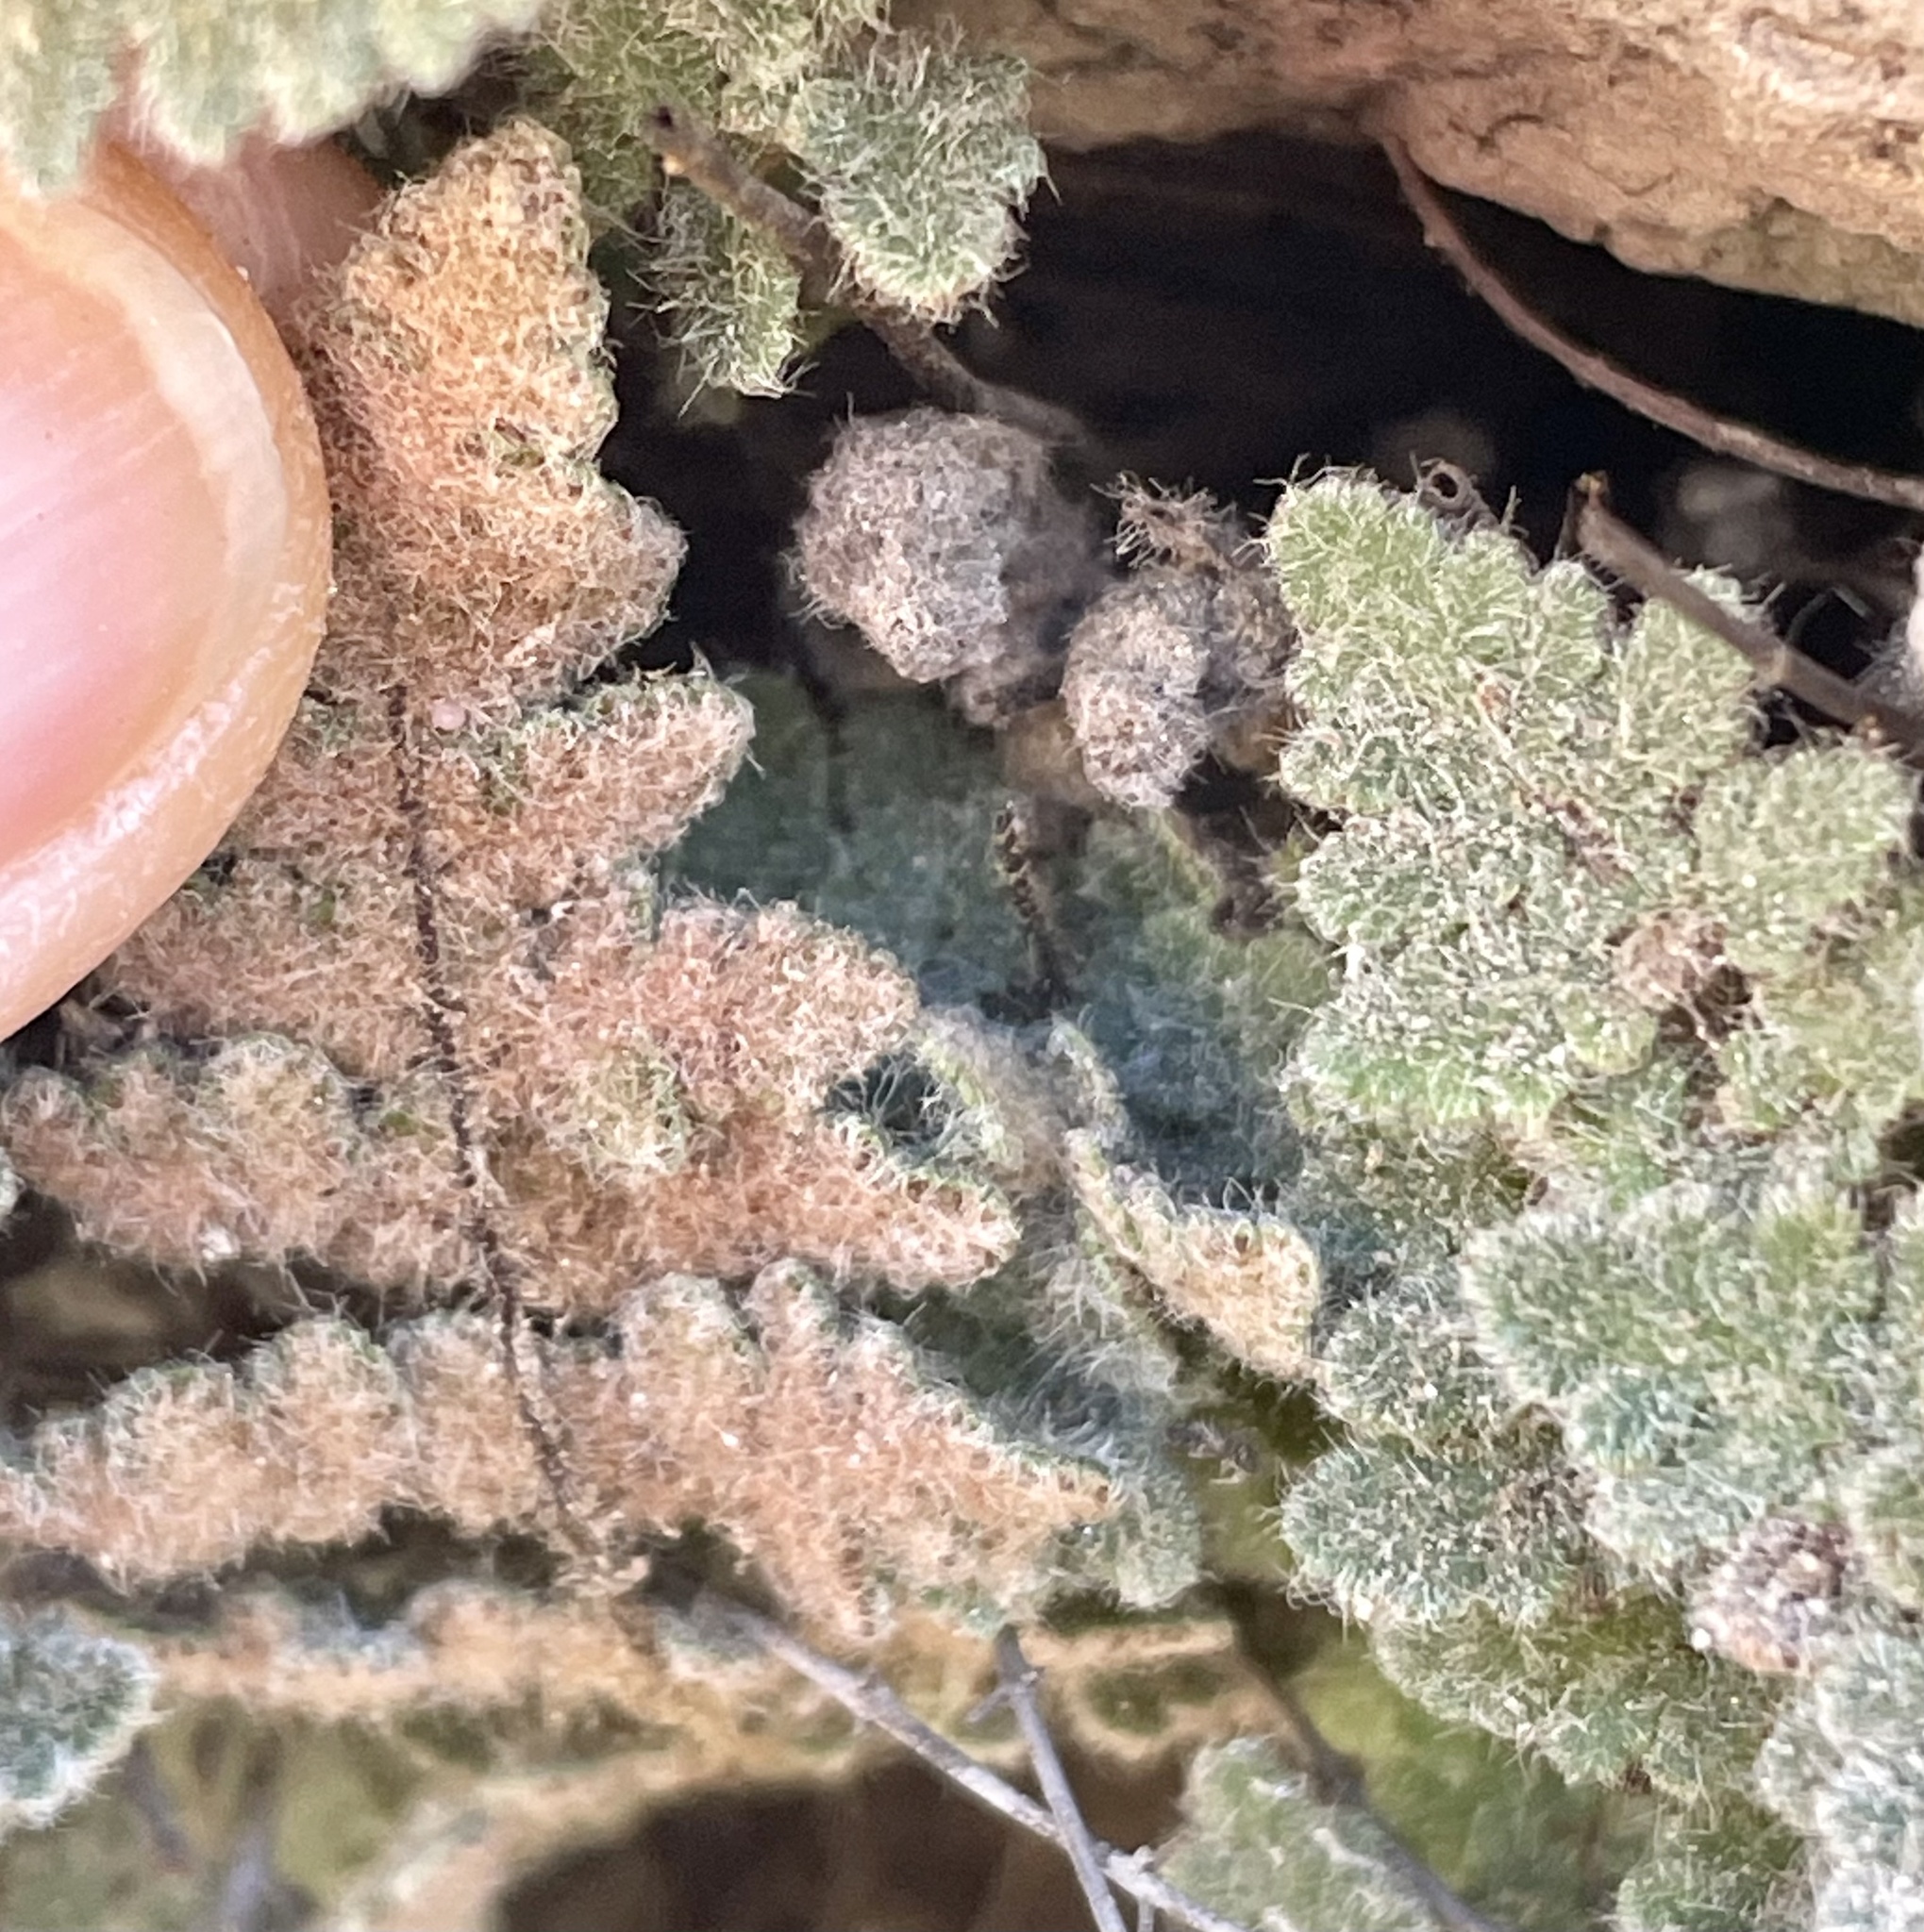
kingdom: Plantae
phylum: Tracheophyta
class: Polypodiopsida
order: Polypodiales
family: Pteridaceae
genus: Myriopteris
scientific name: Myriopteris parryi
